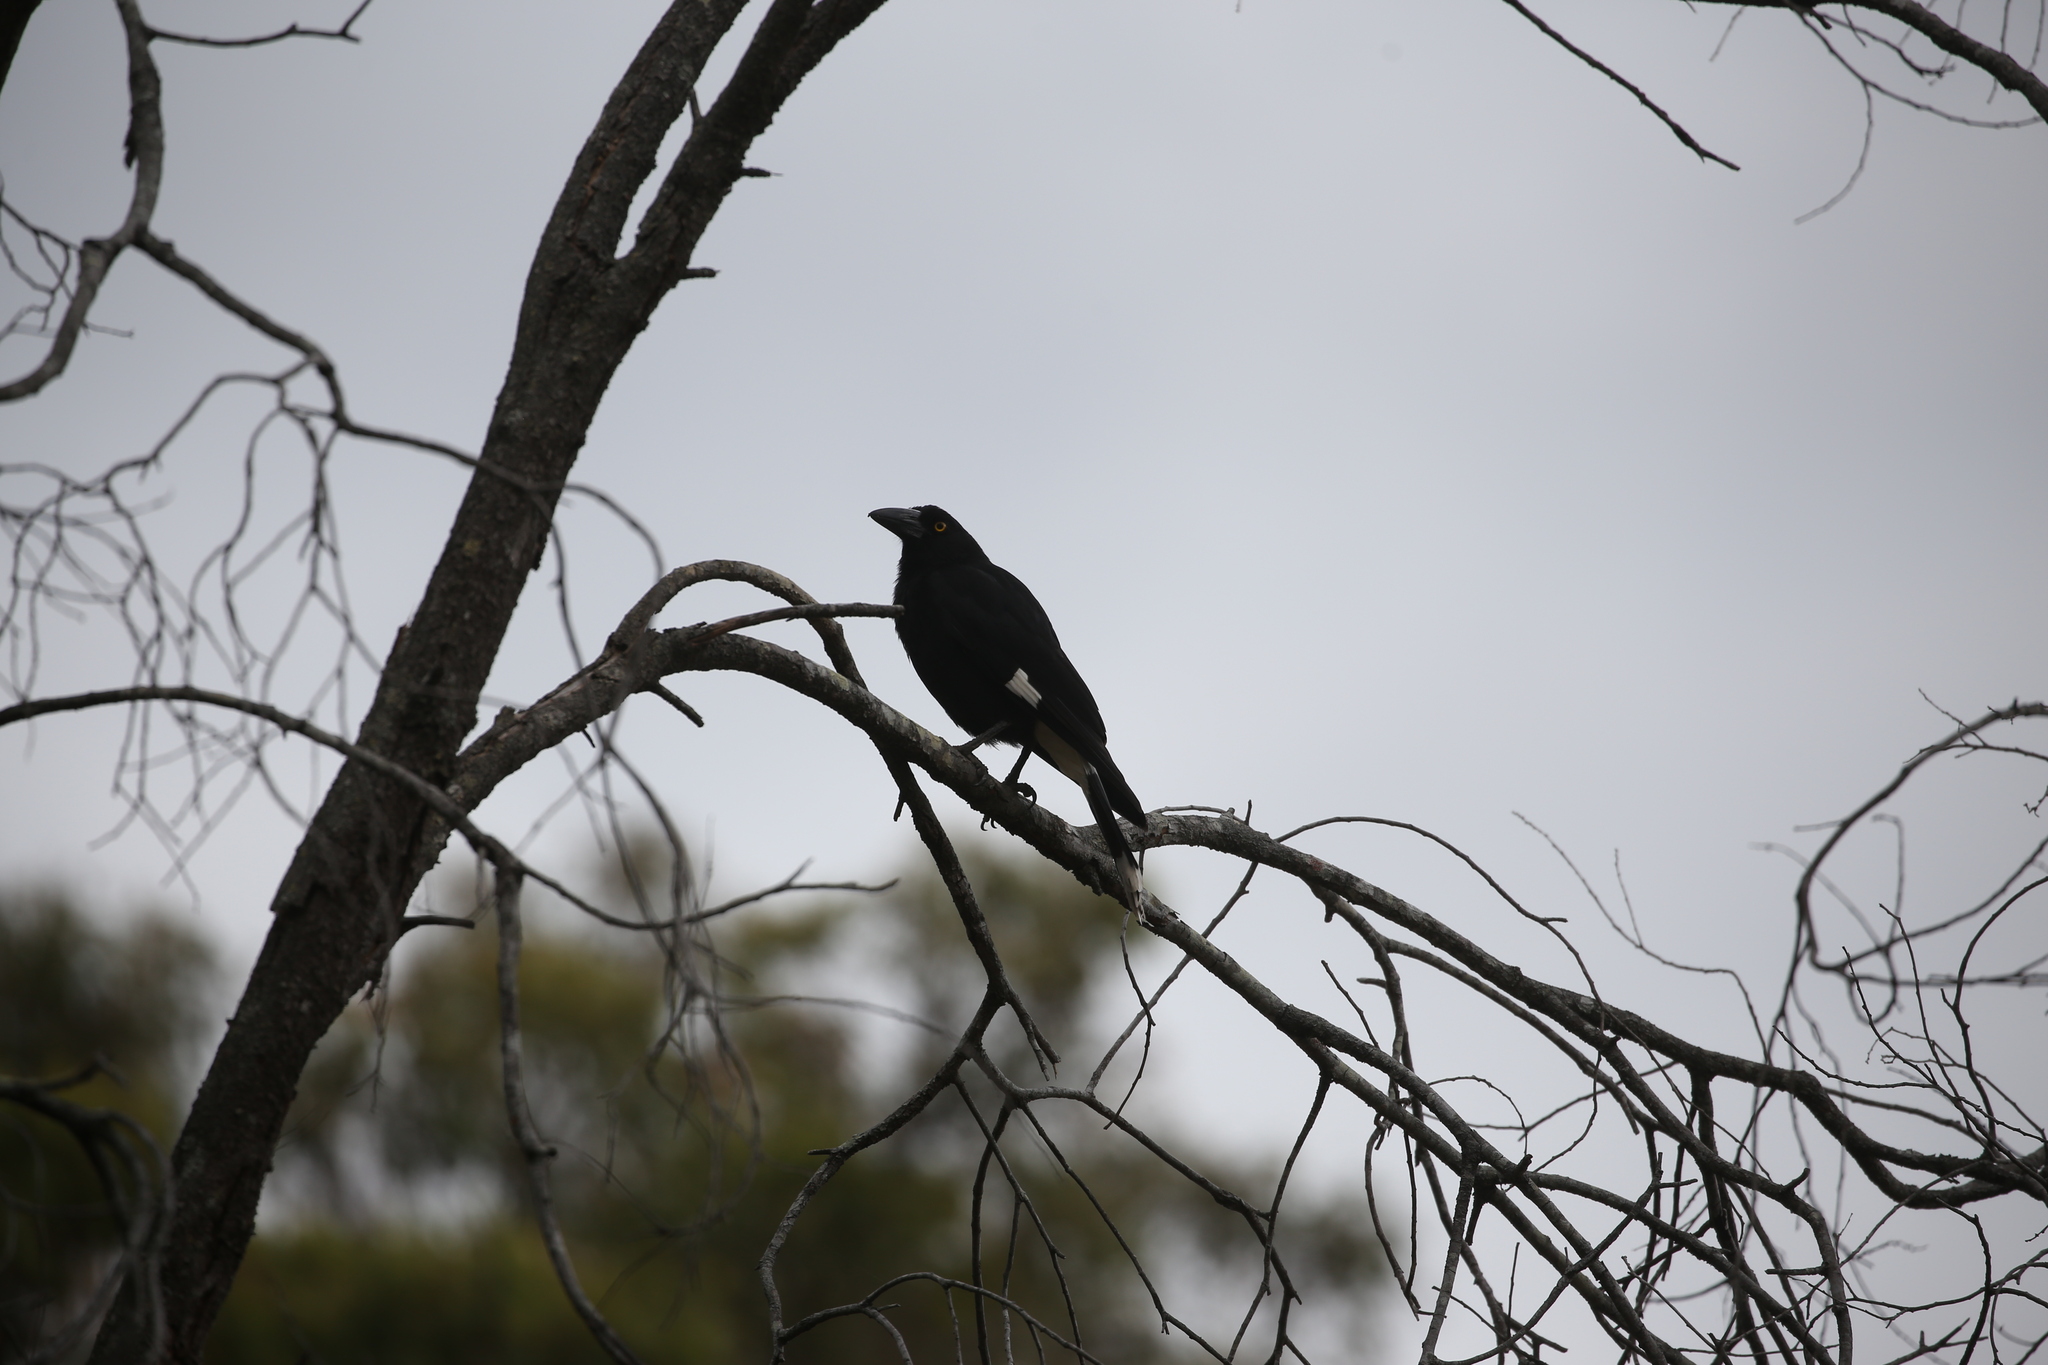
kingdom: Animalia
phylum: Chordata
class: Aves
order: Passeriformes
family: Cracticidae
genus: Strepera
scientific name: Strepera graculina
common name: Pied currawong
